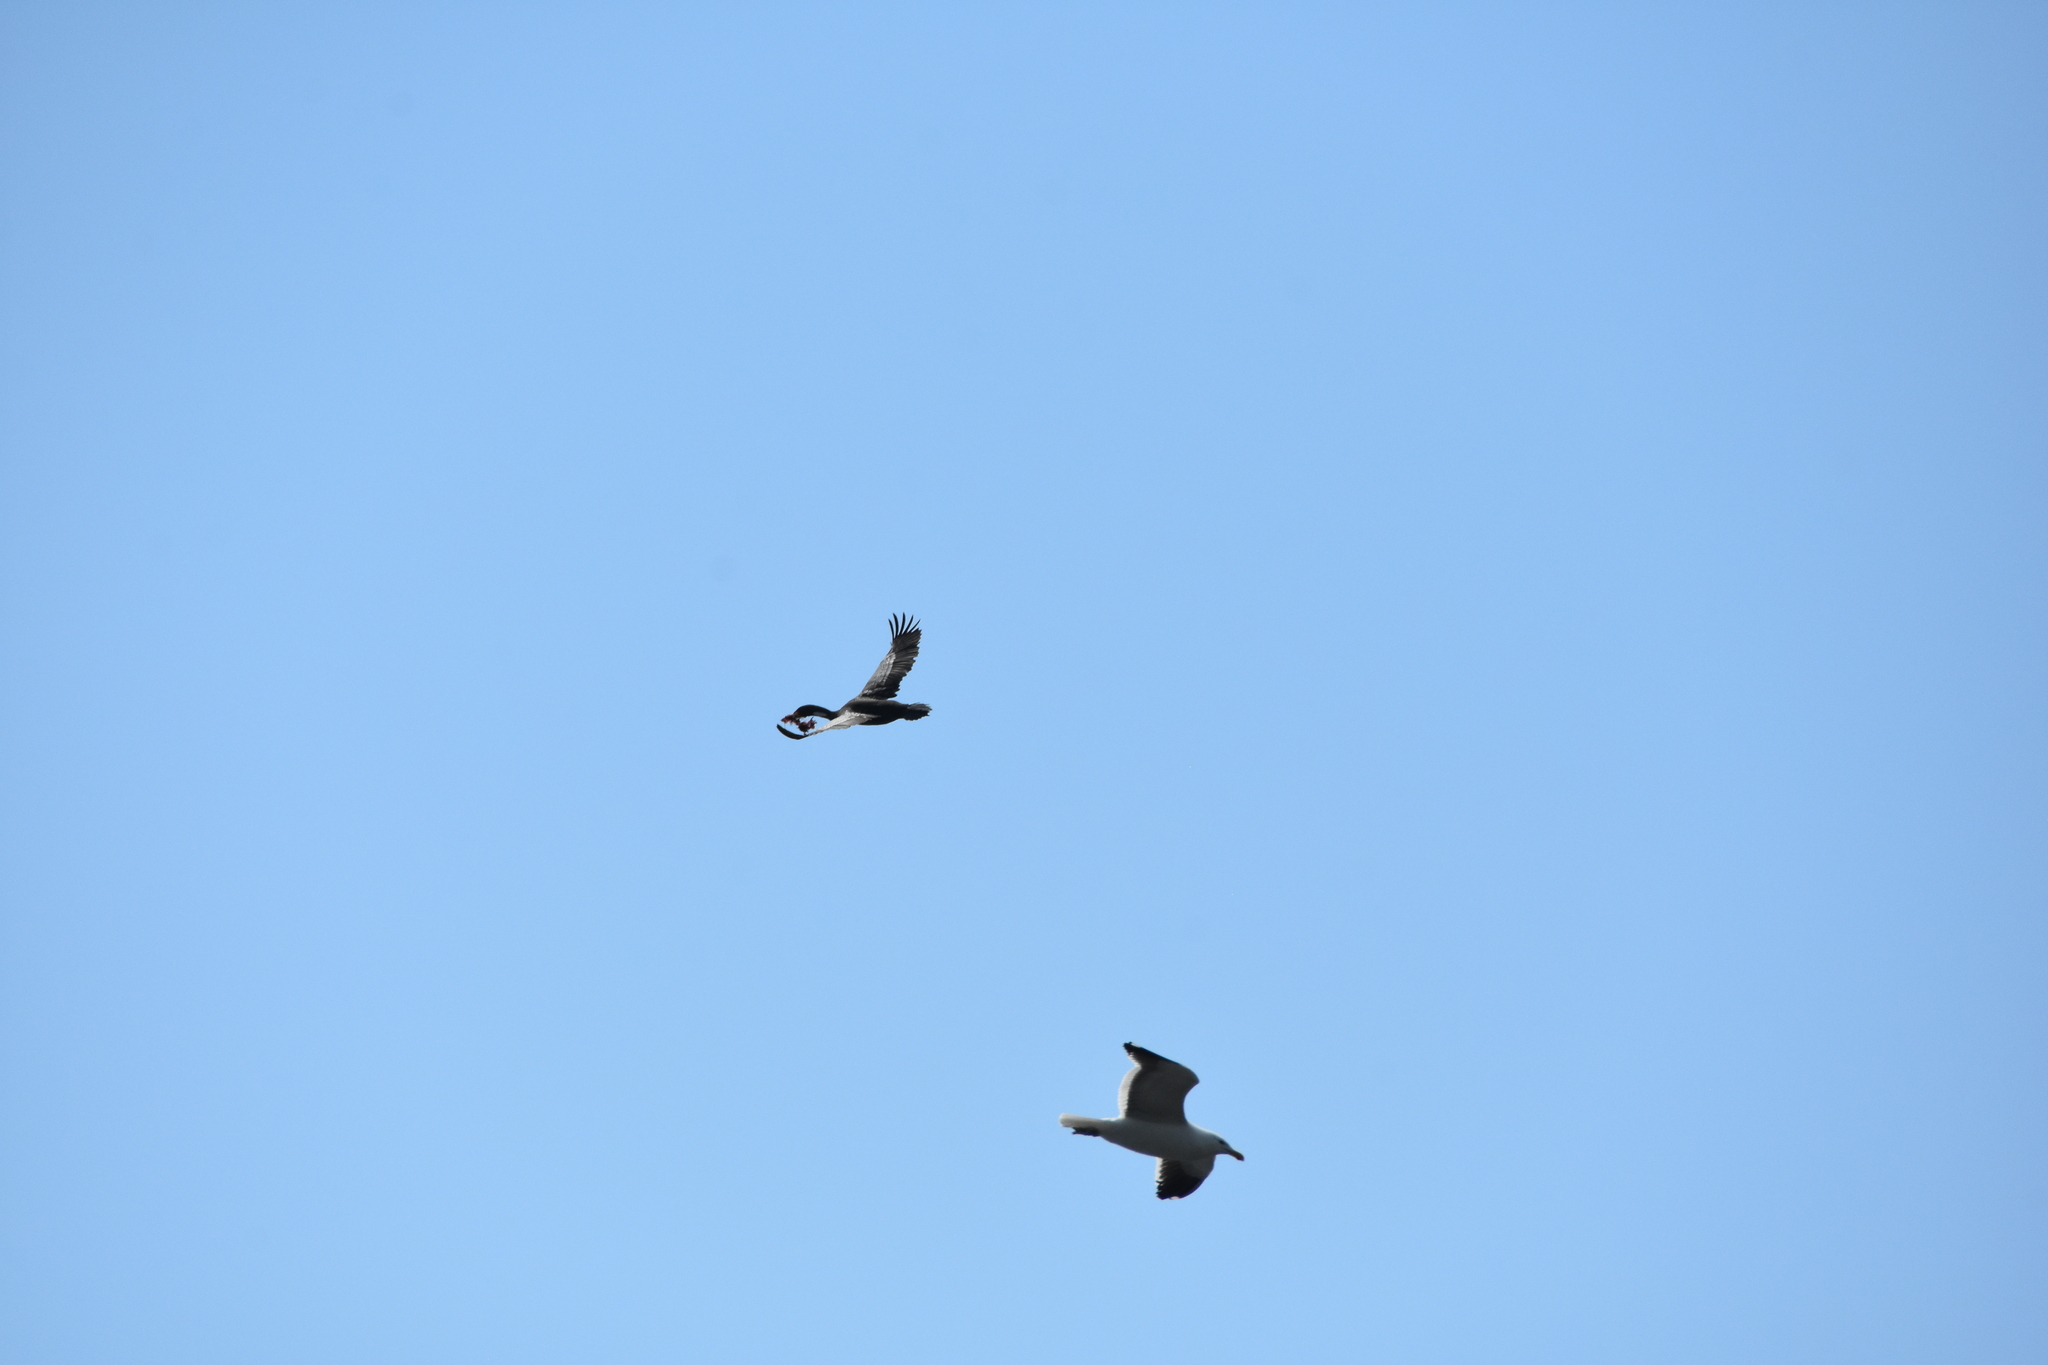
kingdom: Animalia
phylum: Chordata
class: Aves
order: Charadriiformes
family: Laridae
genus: Larus
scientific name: Larus dominicanus
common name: Kelp gull
